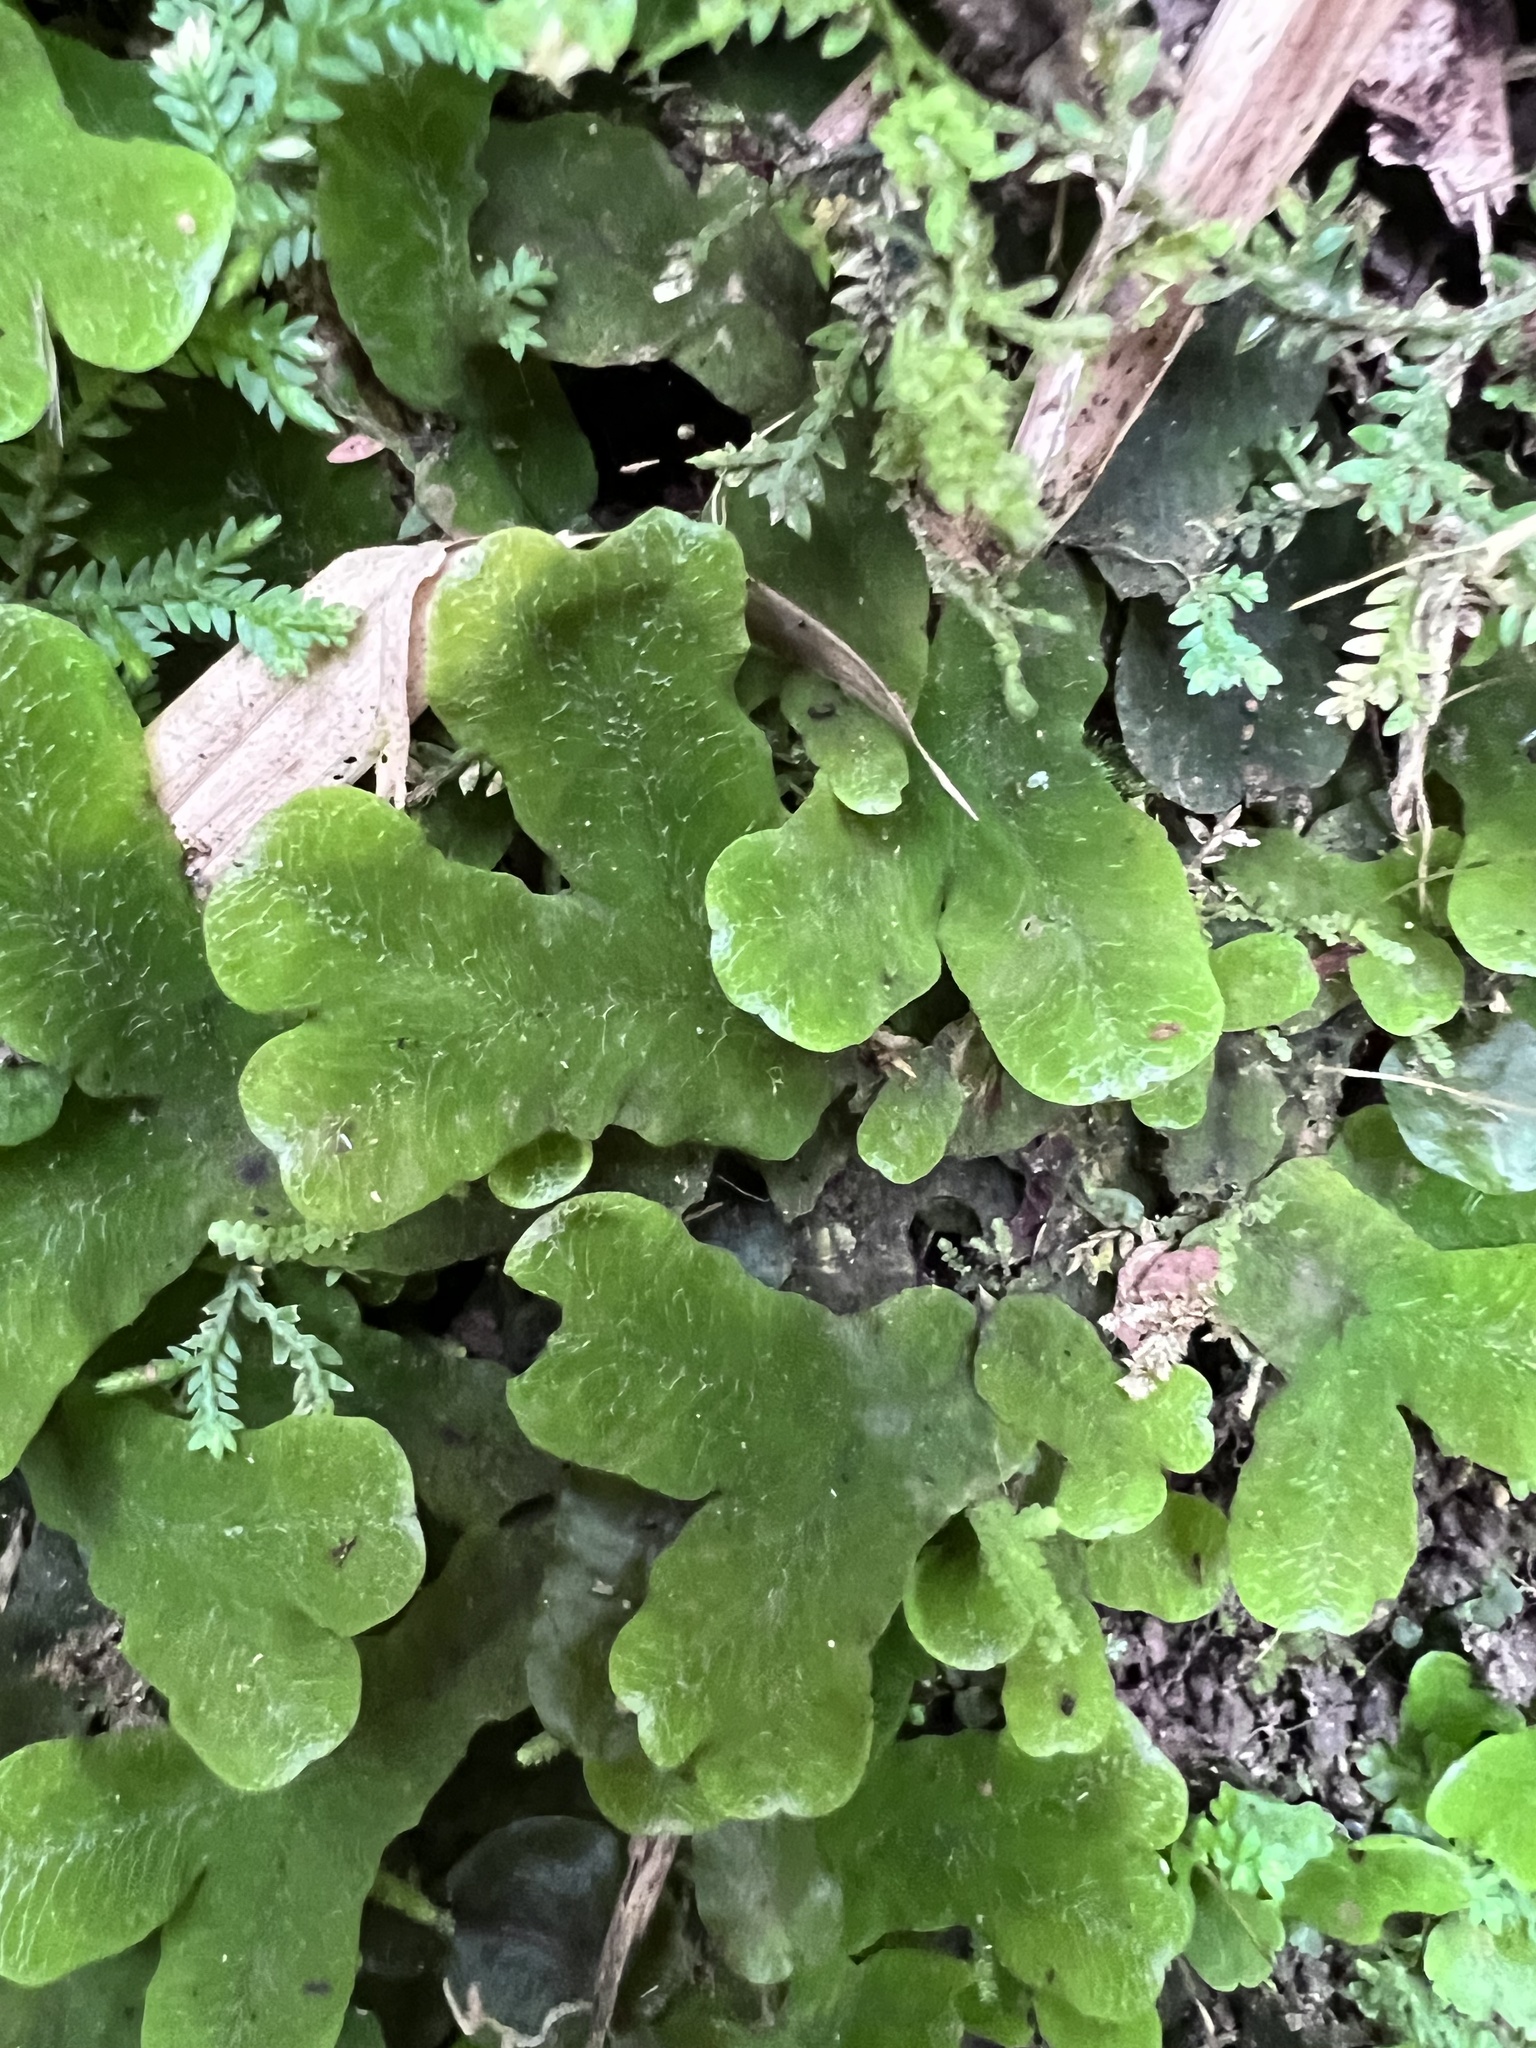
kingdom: Plantae
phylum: Marchantiophyta
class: Marchantiopsida
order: Marchantiales
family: Dumortieraceae
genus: Dumortiera
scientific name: Dumortiera hirsuta
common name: Dumortier's liverwort
